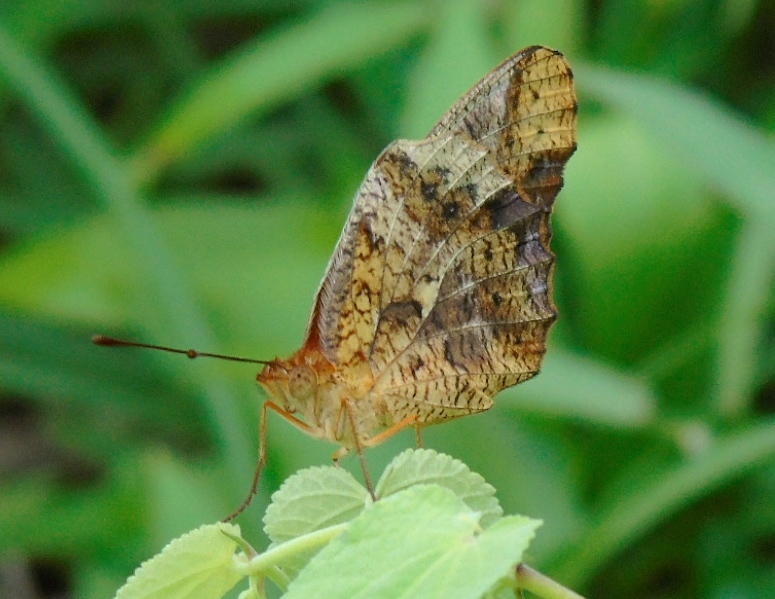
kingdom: Animalia
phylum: Arthropoda
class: Insecta
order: Lepidoptera
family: Nymphalidae
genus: Euptoieta
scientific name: Euptoieta hegesia
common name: Mexican fritillary
